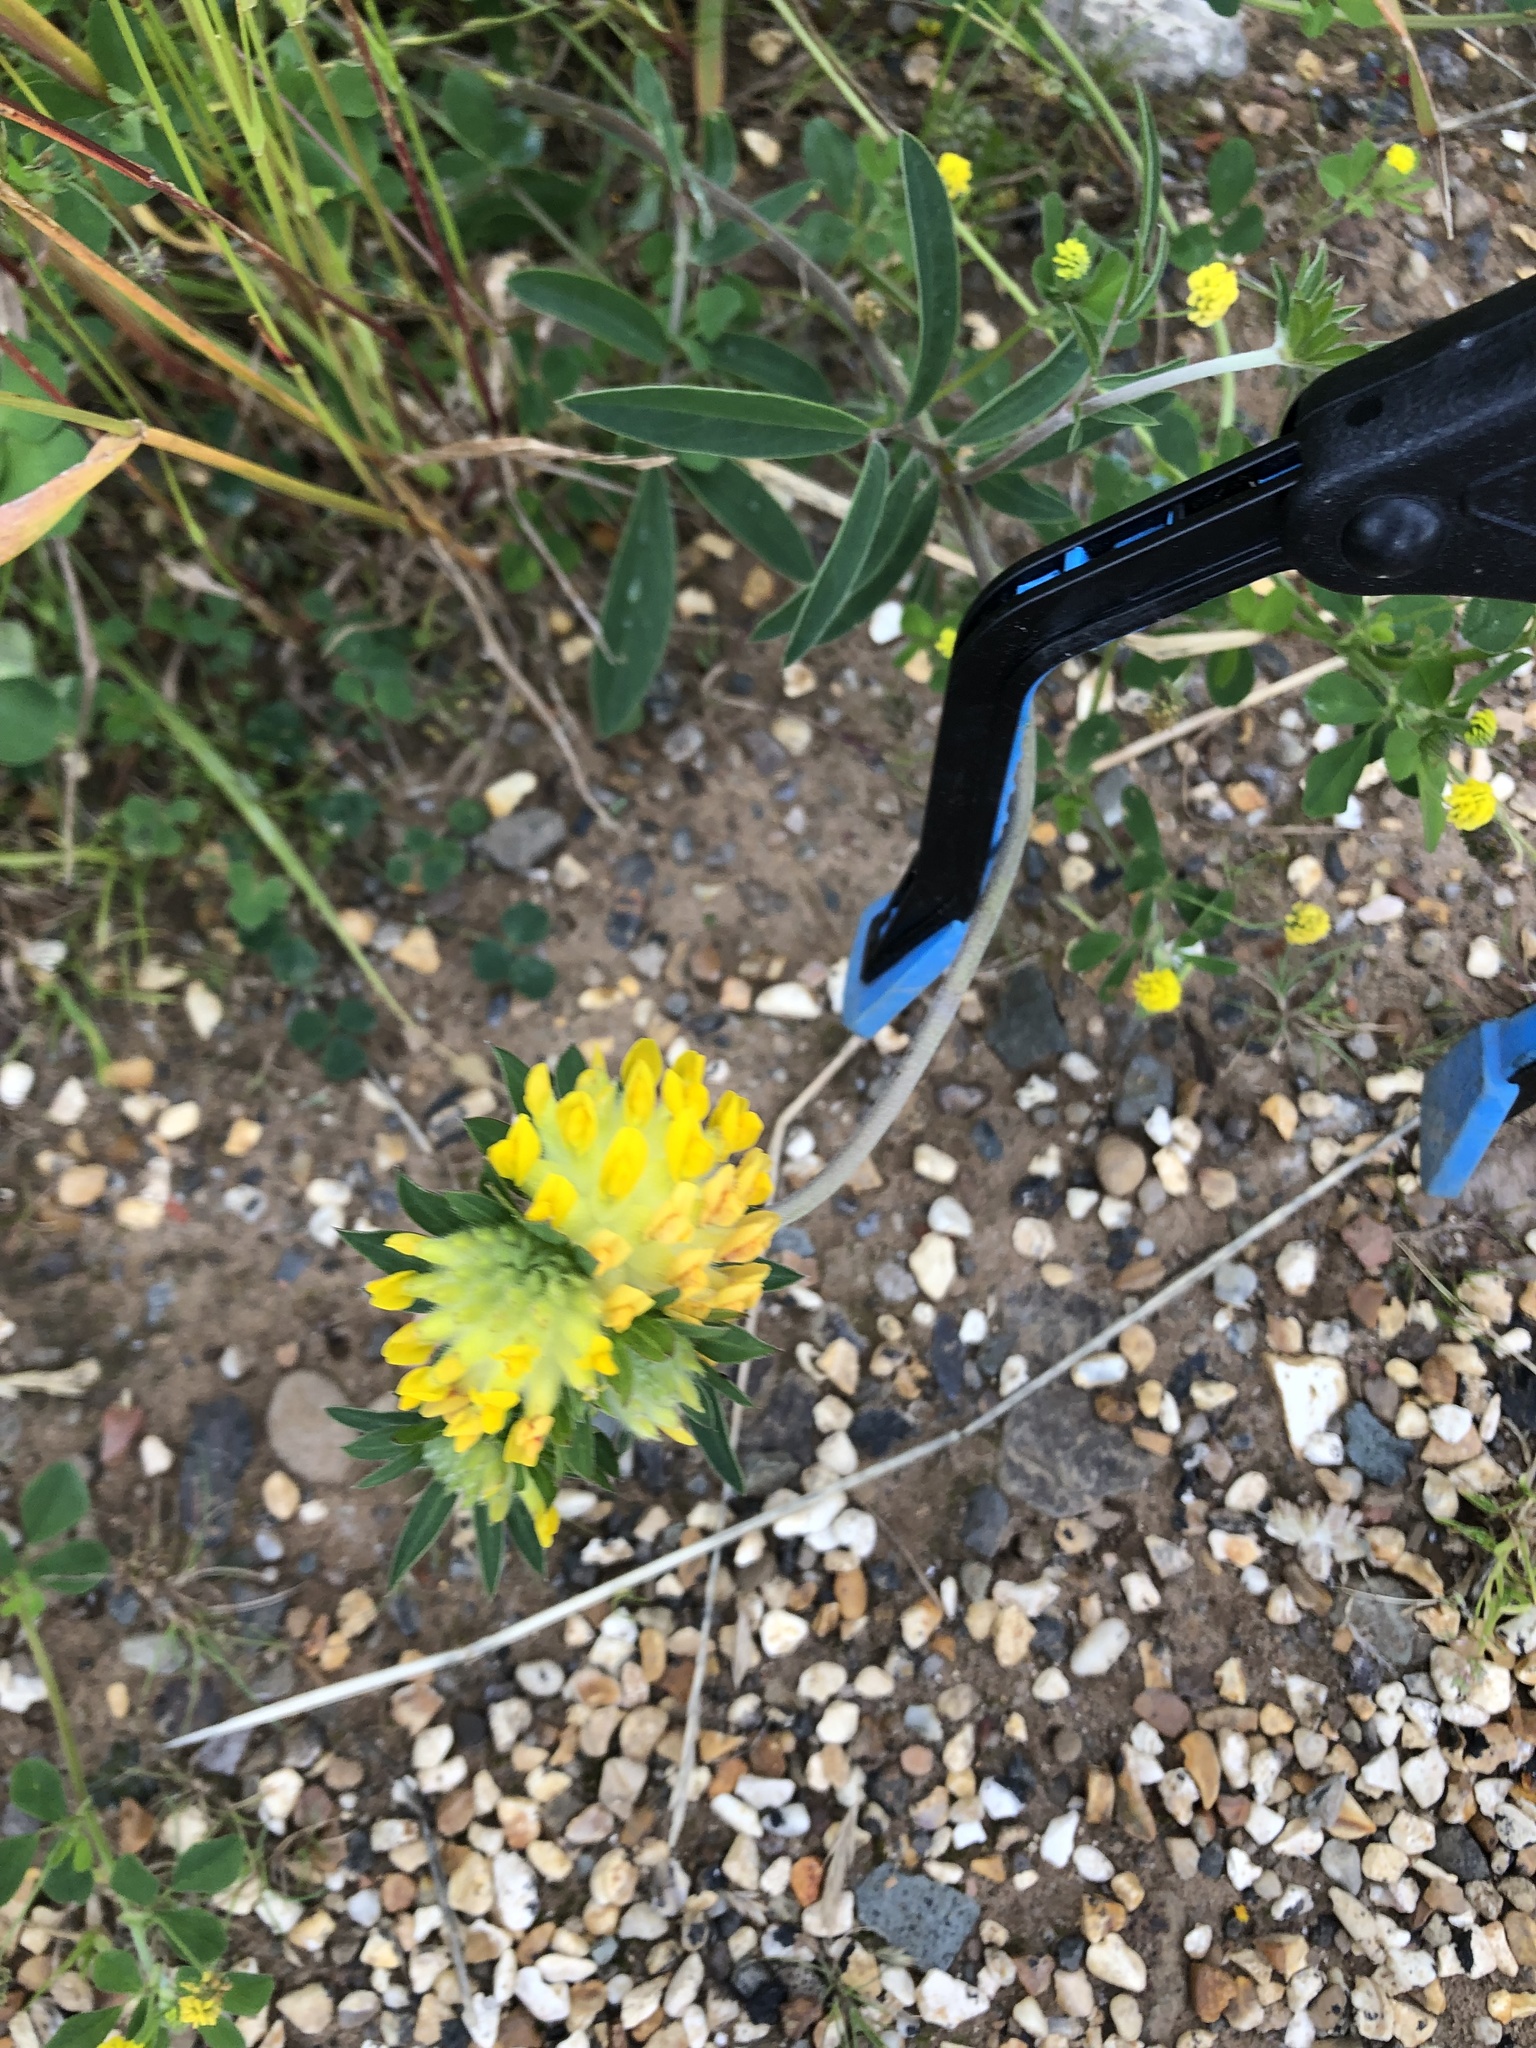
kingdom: Plantae
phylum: Tracheophyta
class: Magnoliopsida
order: Fabales
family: Fabaceae
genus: Anthyllis
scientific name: Anthyllis vulneraria
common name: Kidney vetch
